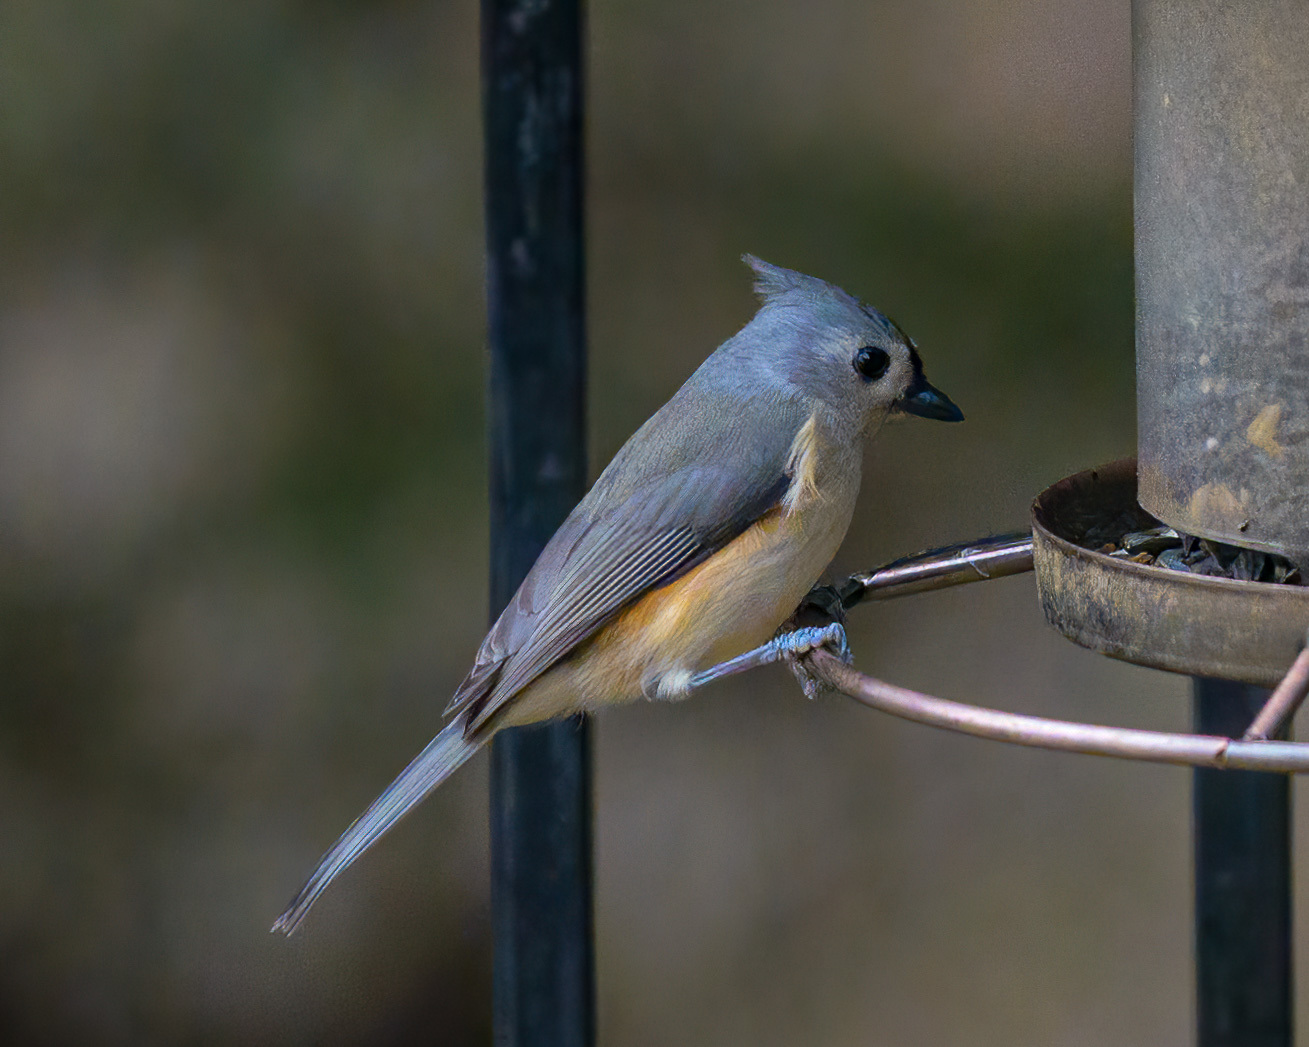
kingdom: Animalia
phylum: Chordata
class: Aves
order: Passeriformes
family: Paridae
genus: Baeolophus
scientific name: Baeolophus bicolor
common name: Tufted titmouse
